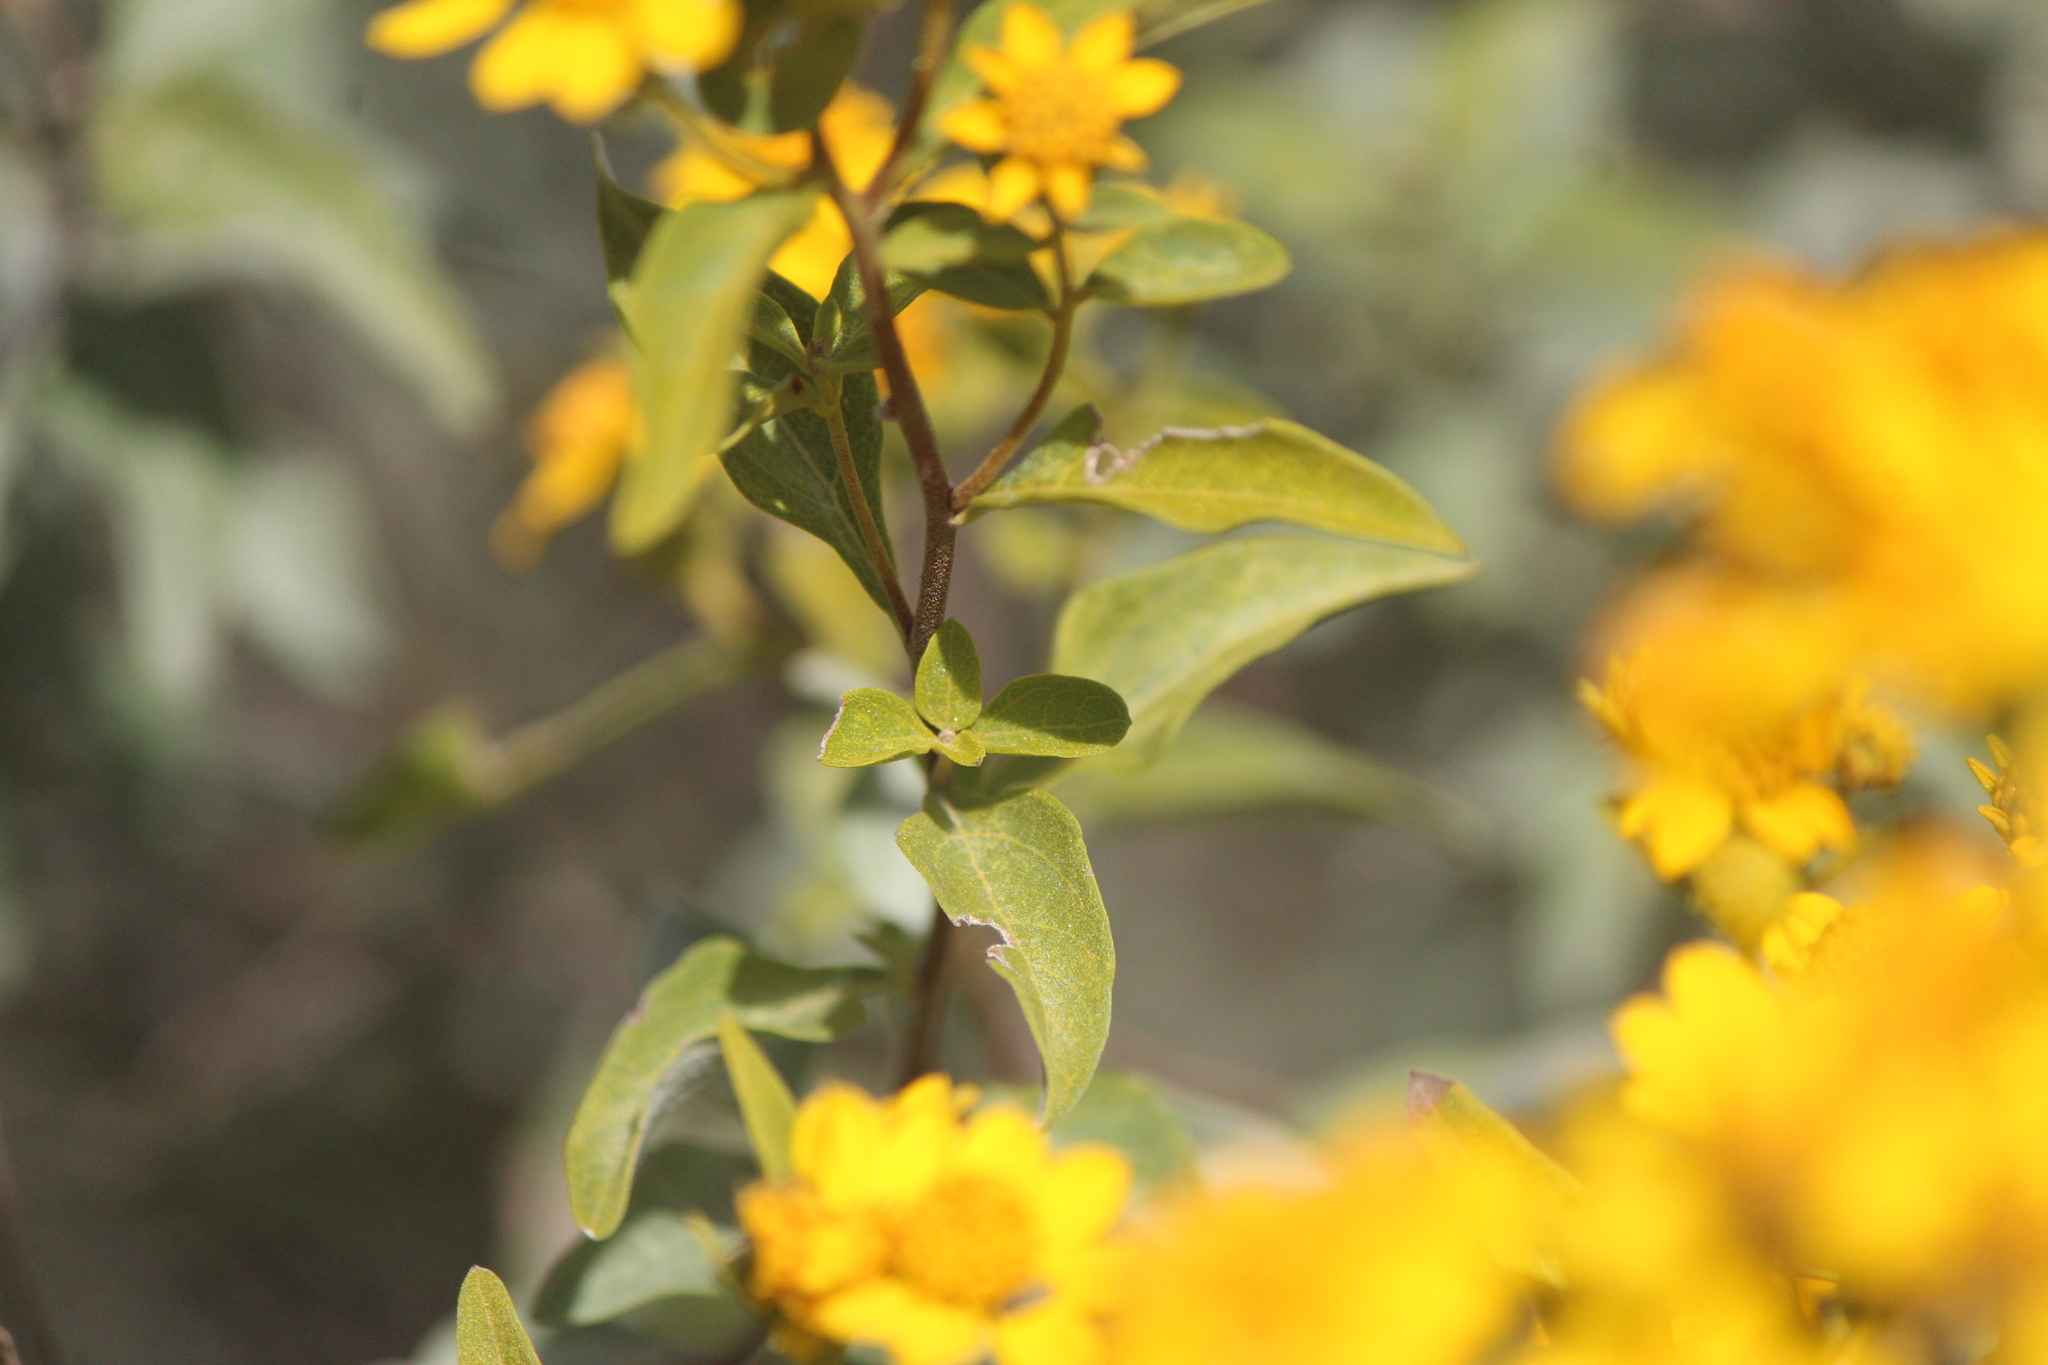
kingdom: Plantae
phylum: Tracheophyta
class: Magnoliopsida
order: Asterales
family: Asteraceae
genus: Zaluzania
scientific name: Zaluzania augusta
